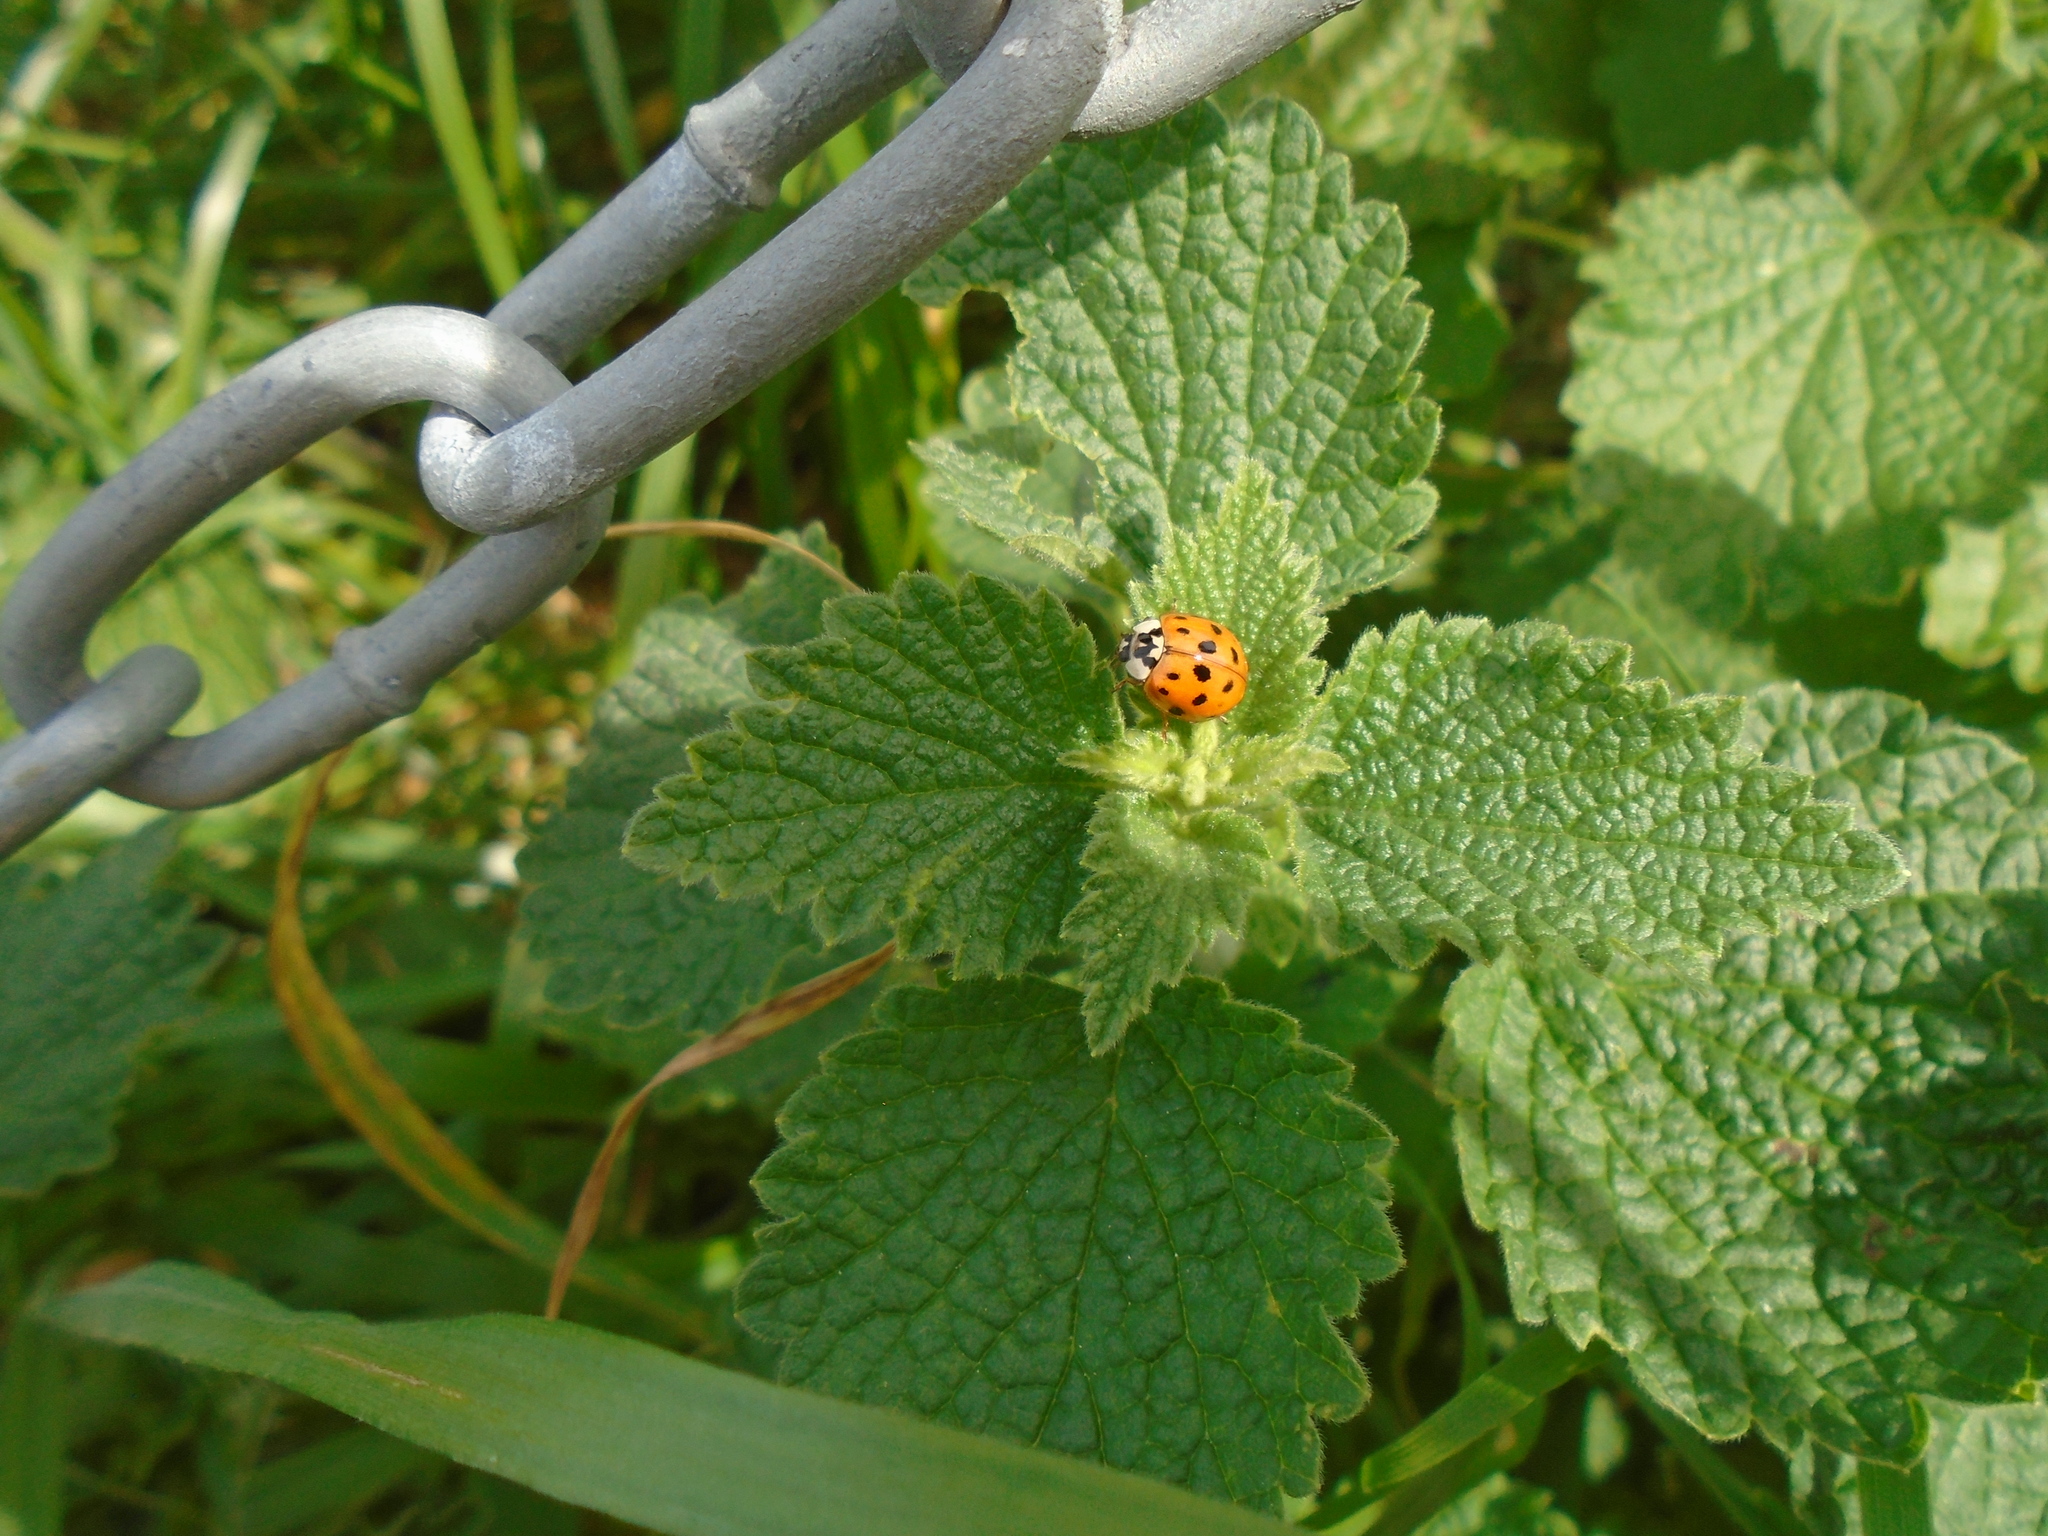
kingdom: Animalia
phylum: Arthropoda
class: Insecta
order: Coleoptera
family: Coccinellidae
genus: Harmonia
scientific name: Harmonia axyridis
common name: Harlequin ladybird
